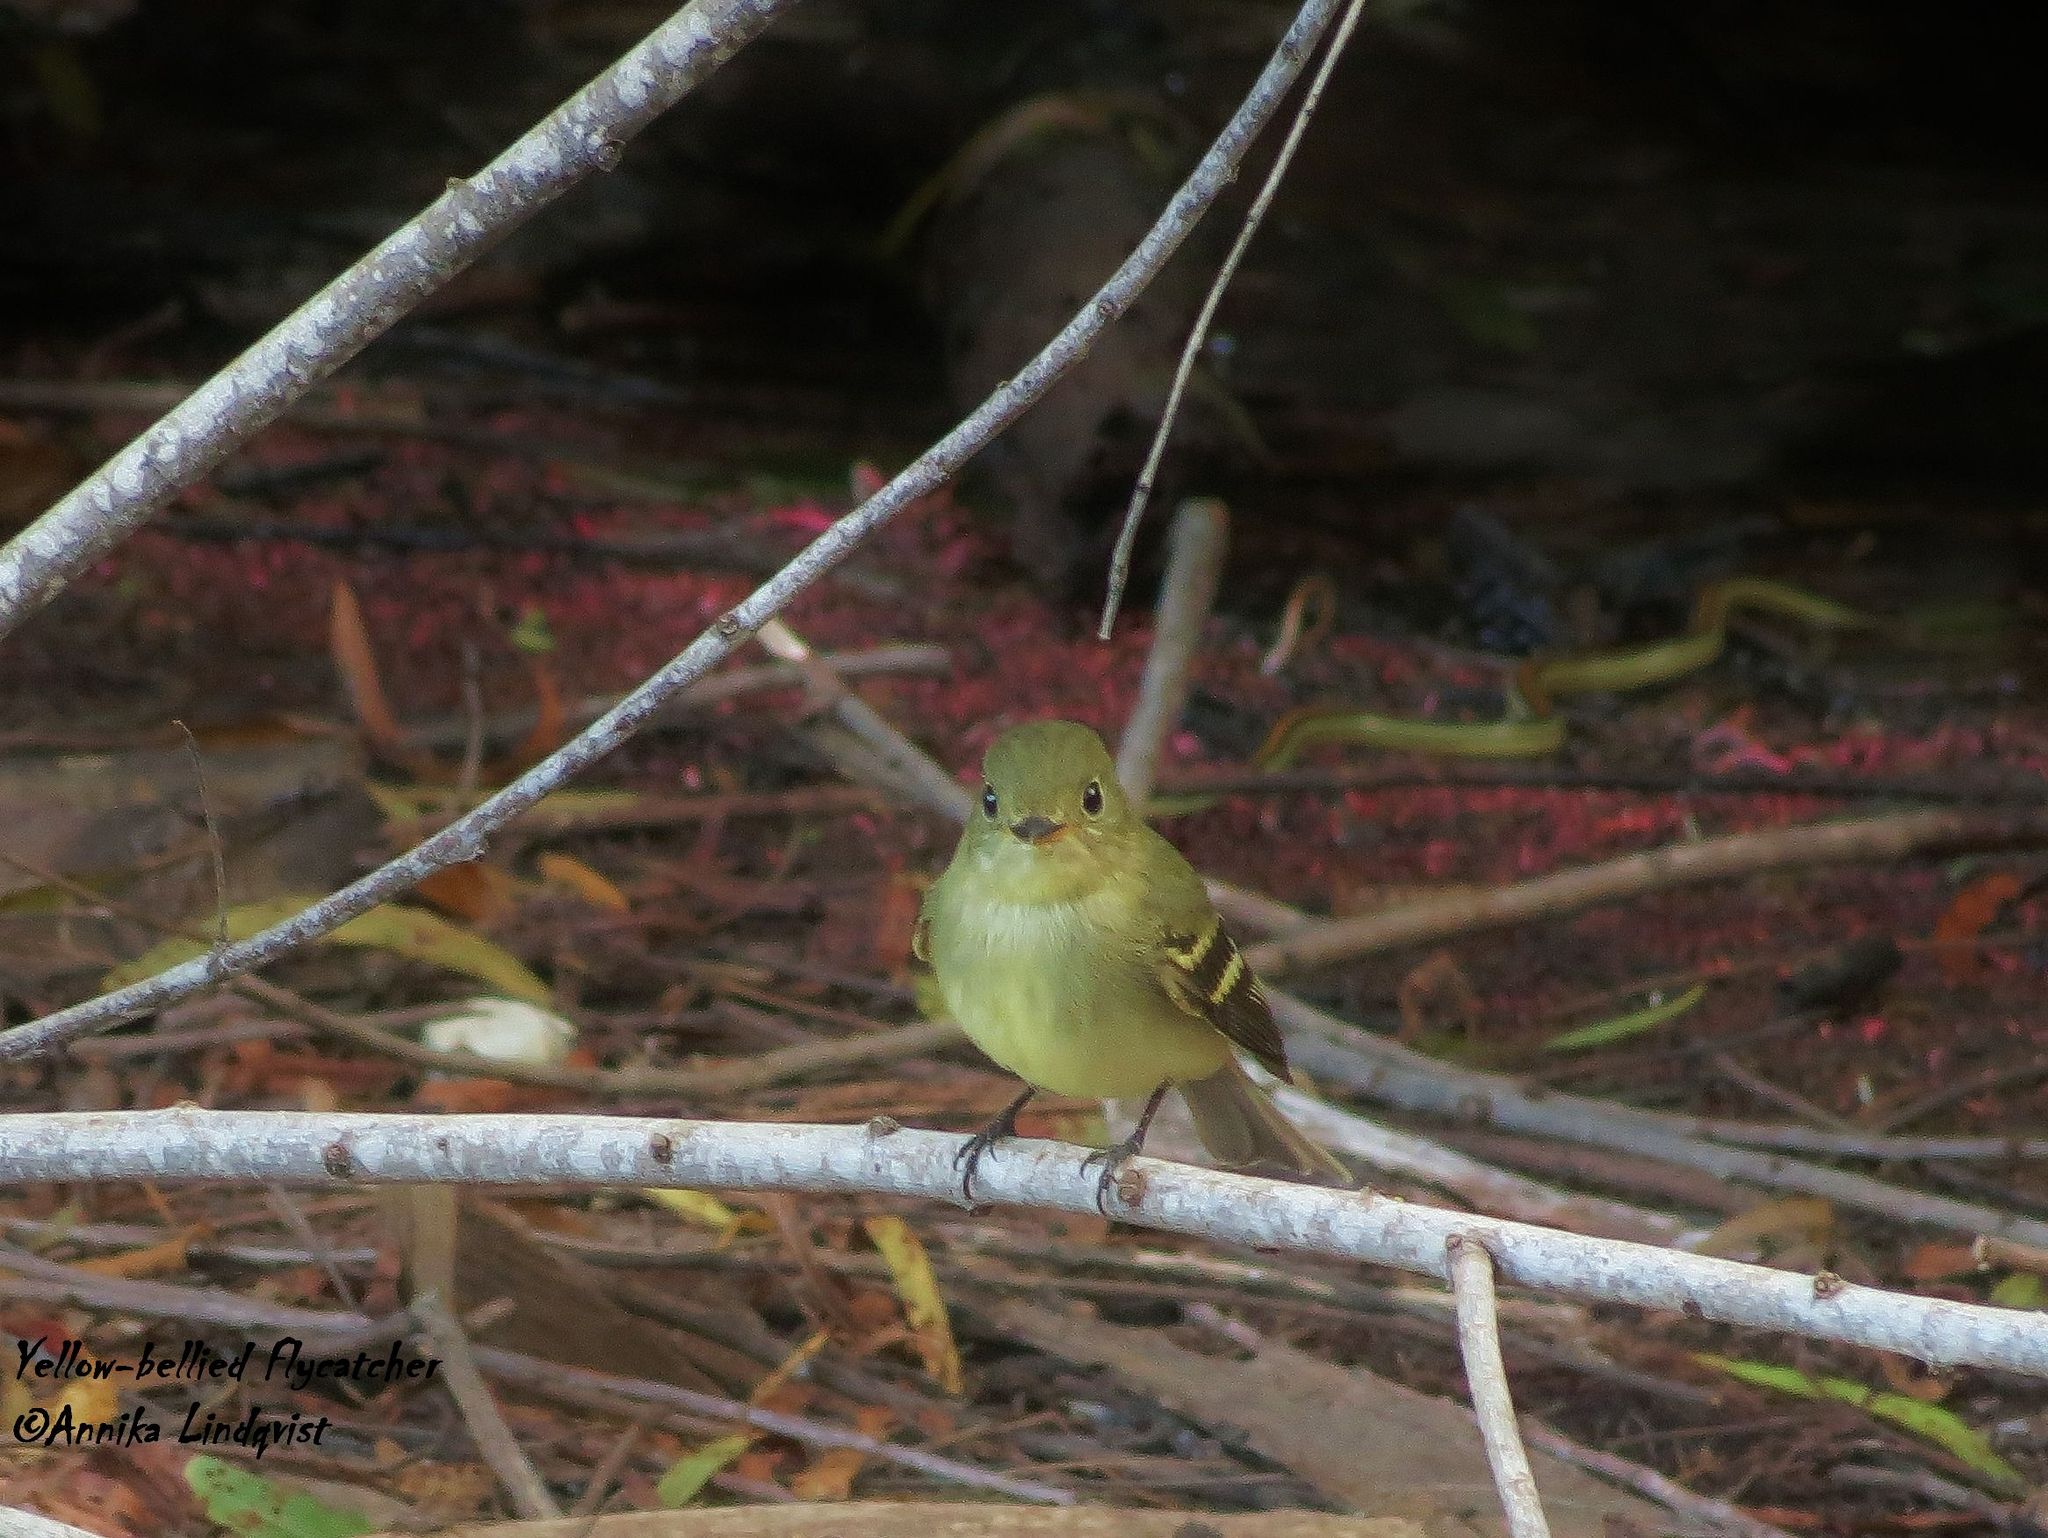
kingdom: Animalia
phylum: Chordata
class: Aves
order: Passeriformes
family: Tyrannidae
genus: Empidonax
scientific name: Empidonax flaviventris
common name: Yellow-bellied flycatcher
